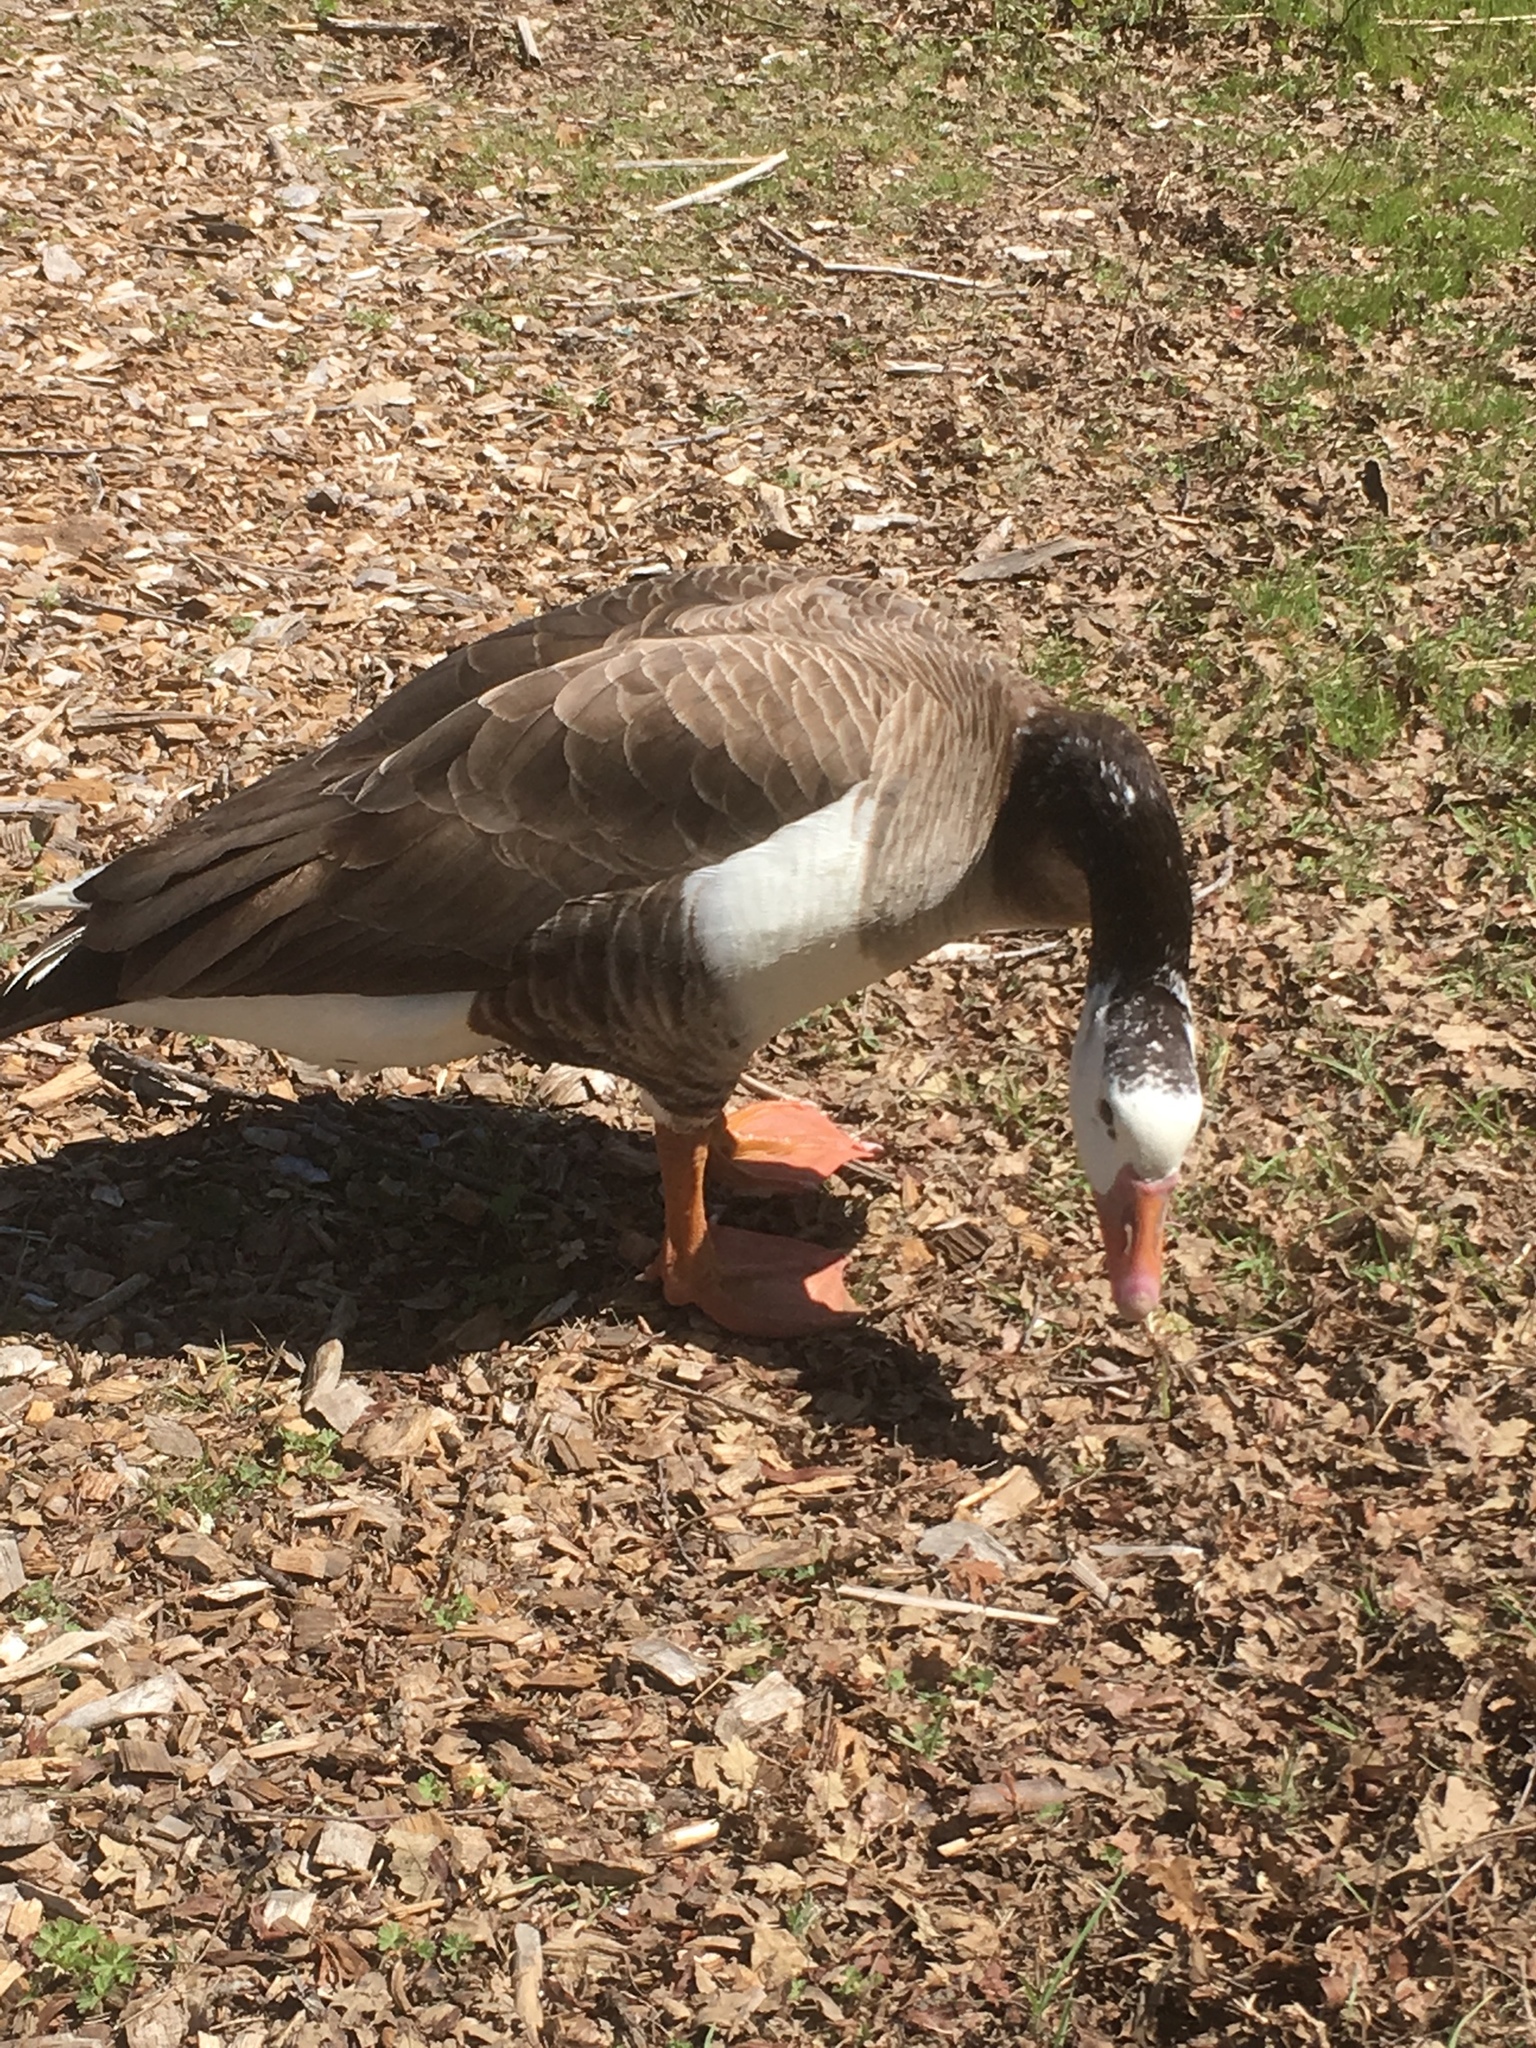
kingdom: Animalia
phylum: Chordata
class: Aves
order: Anseriformes
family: Anatidae
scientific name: Anatidae
